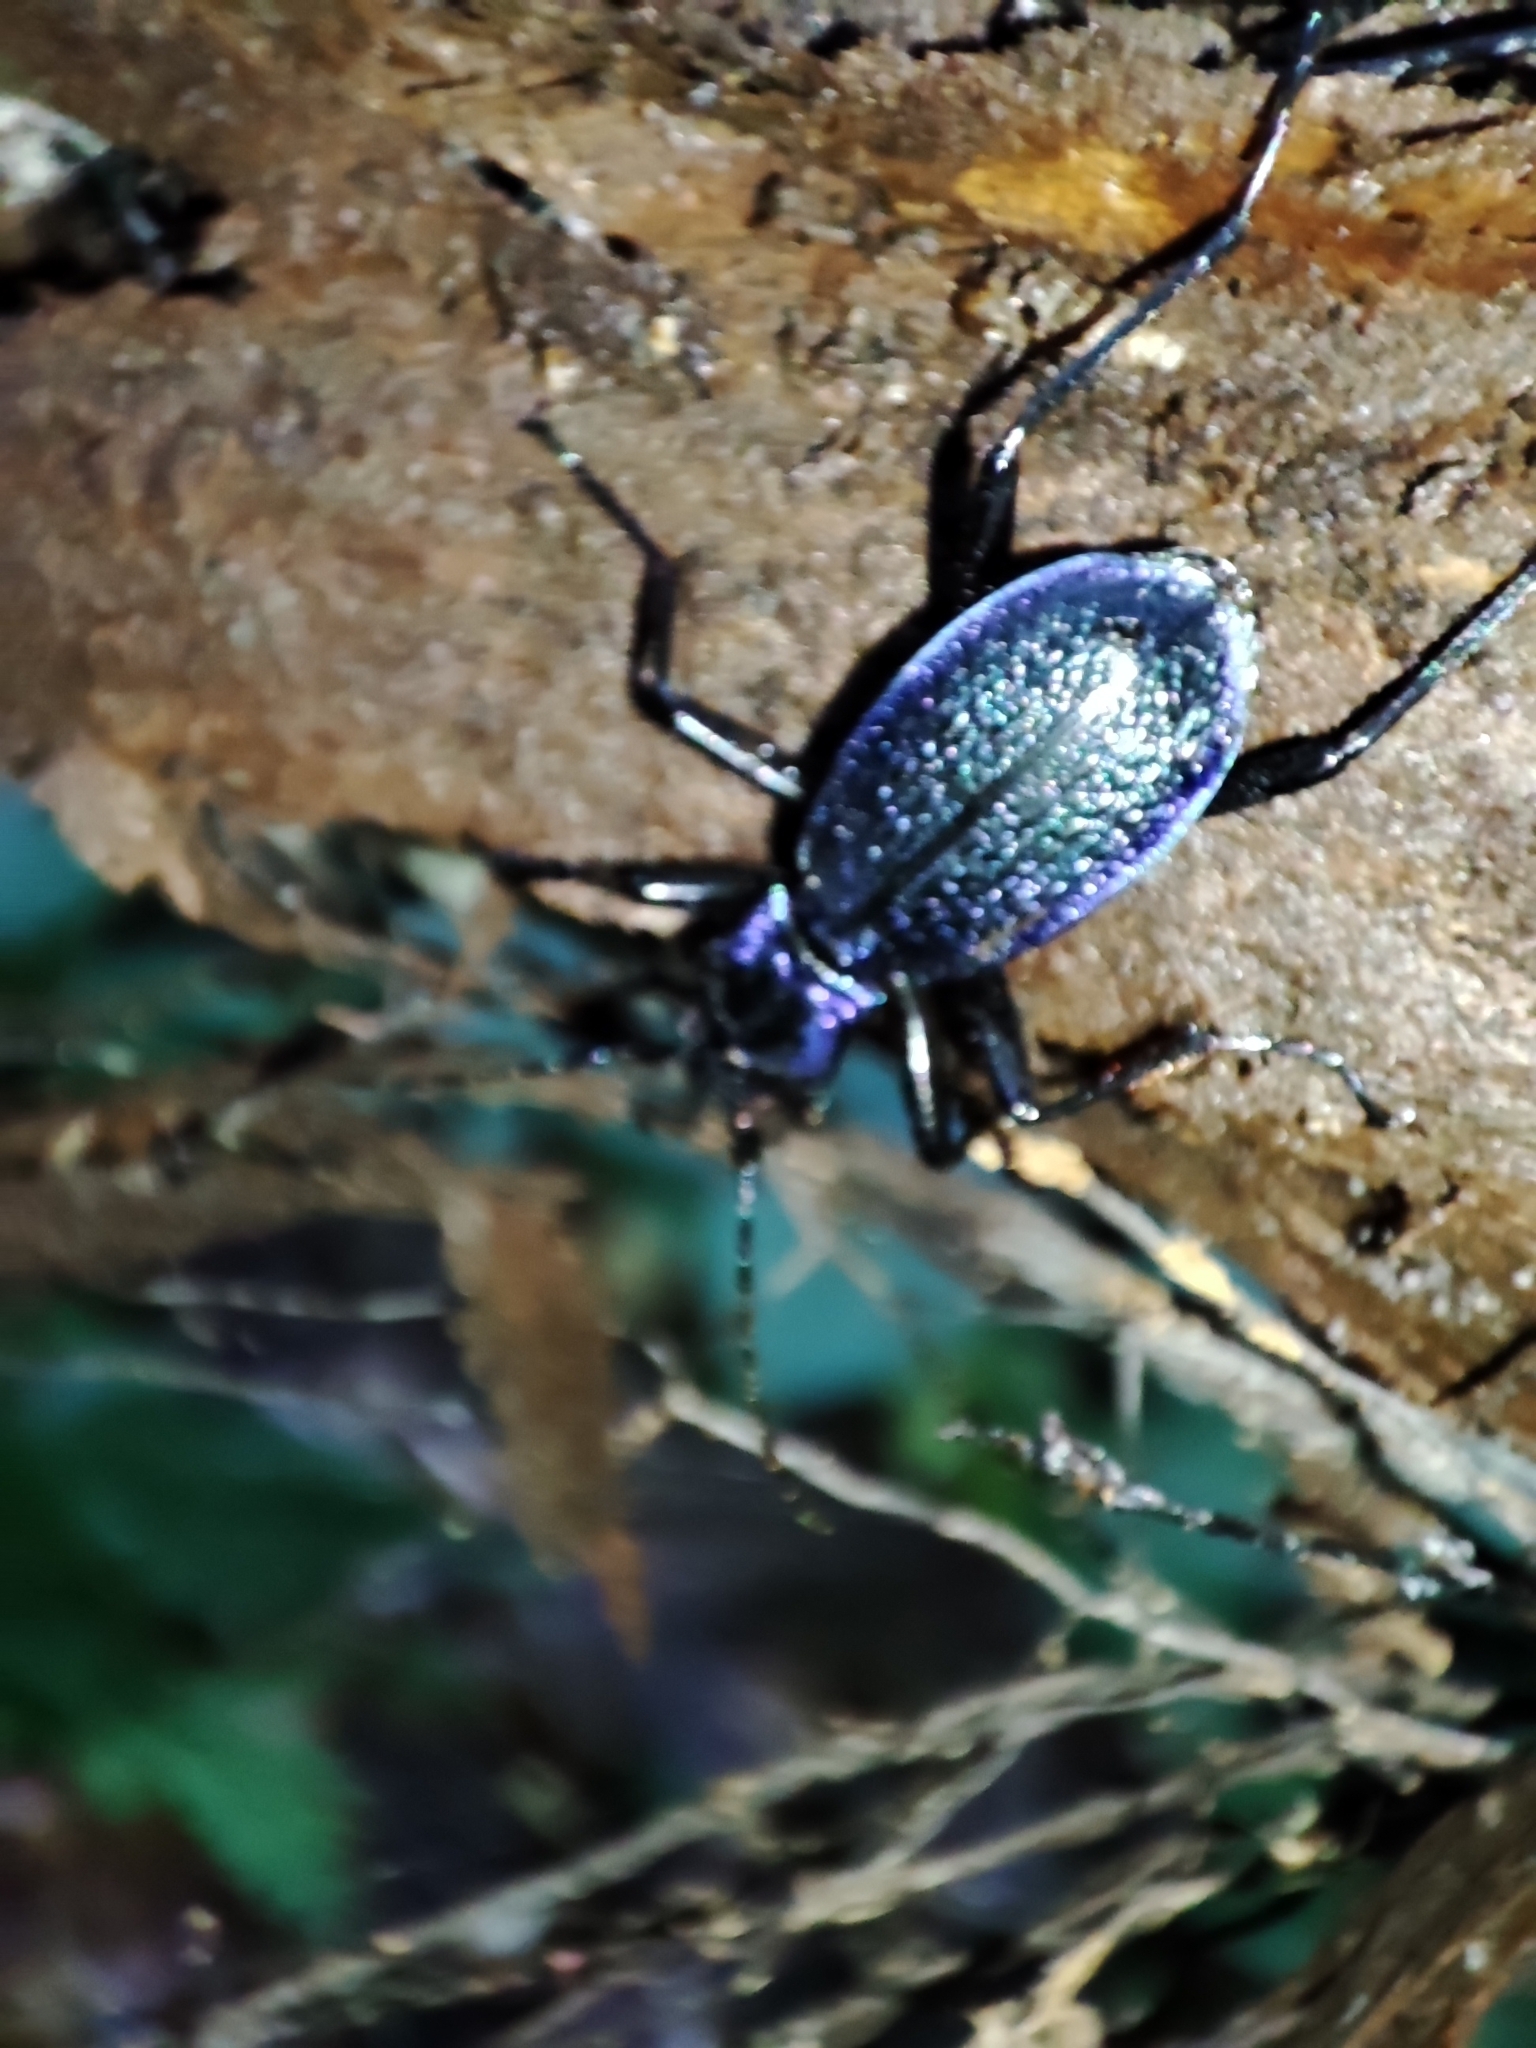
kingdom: Animalia
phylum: Arthropoda
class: Insecta
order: Coleoptera
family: Carabidae
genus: Carabus
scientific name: Carabus intricatus
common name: Blue ground beetle
